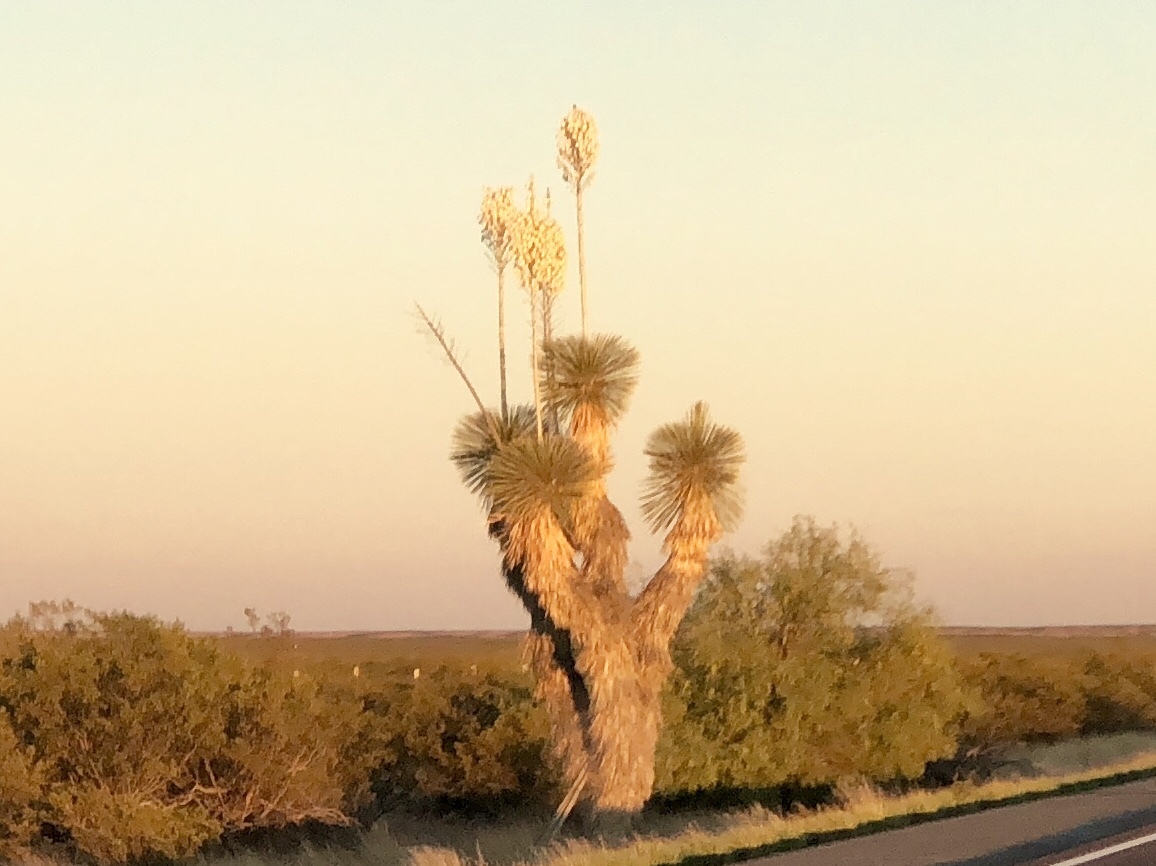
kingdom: Plantae
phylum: Tracheophyta
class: Liliopsida
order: Asparagales
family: Asparagaceae
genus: Yucca
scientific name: Yucca elata
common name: Palmella
